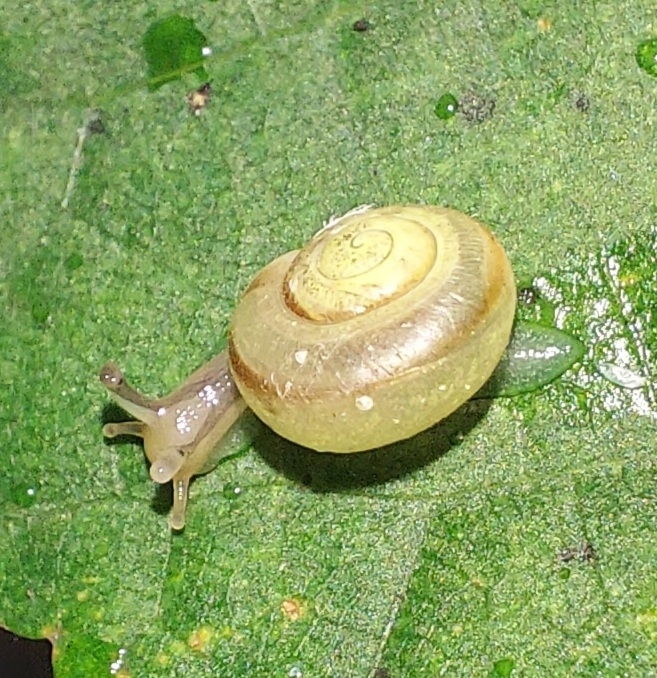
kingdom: Animalia
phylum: Mollusca
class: Gastropoda
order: Stylommatophora
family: Camaenidae
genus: Fruticicola
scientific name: Fruticicola fruticum
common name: Bush snail
